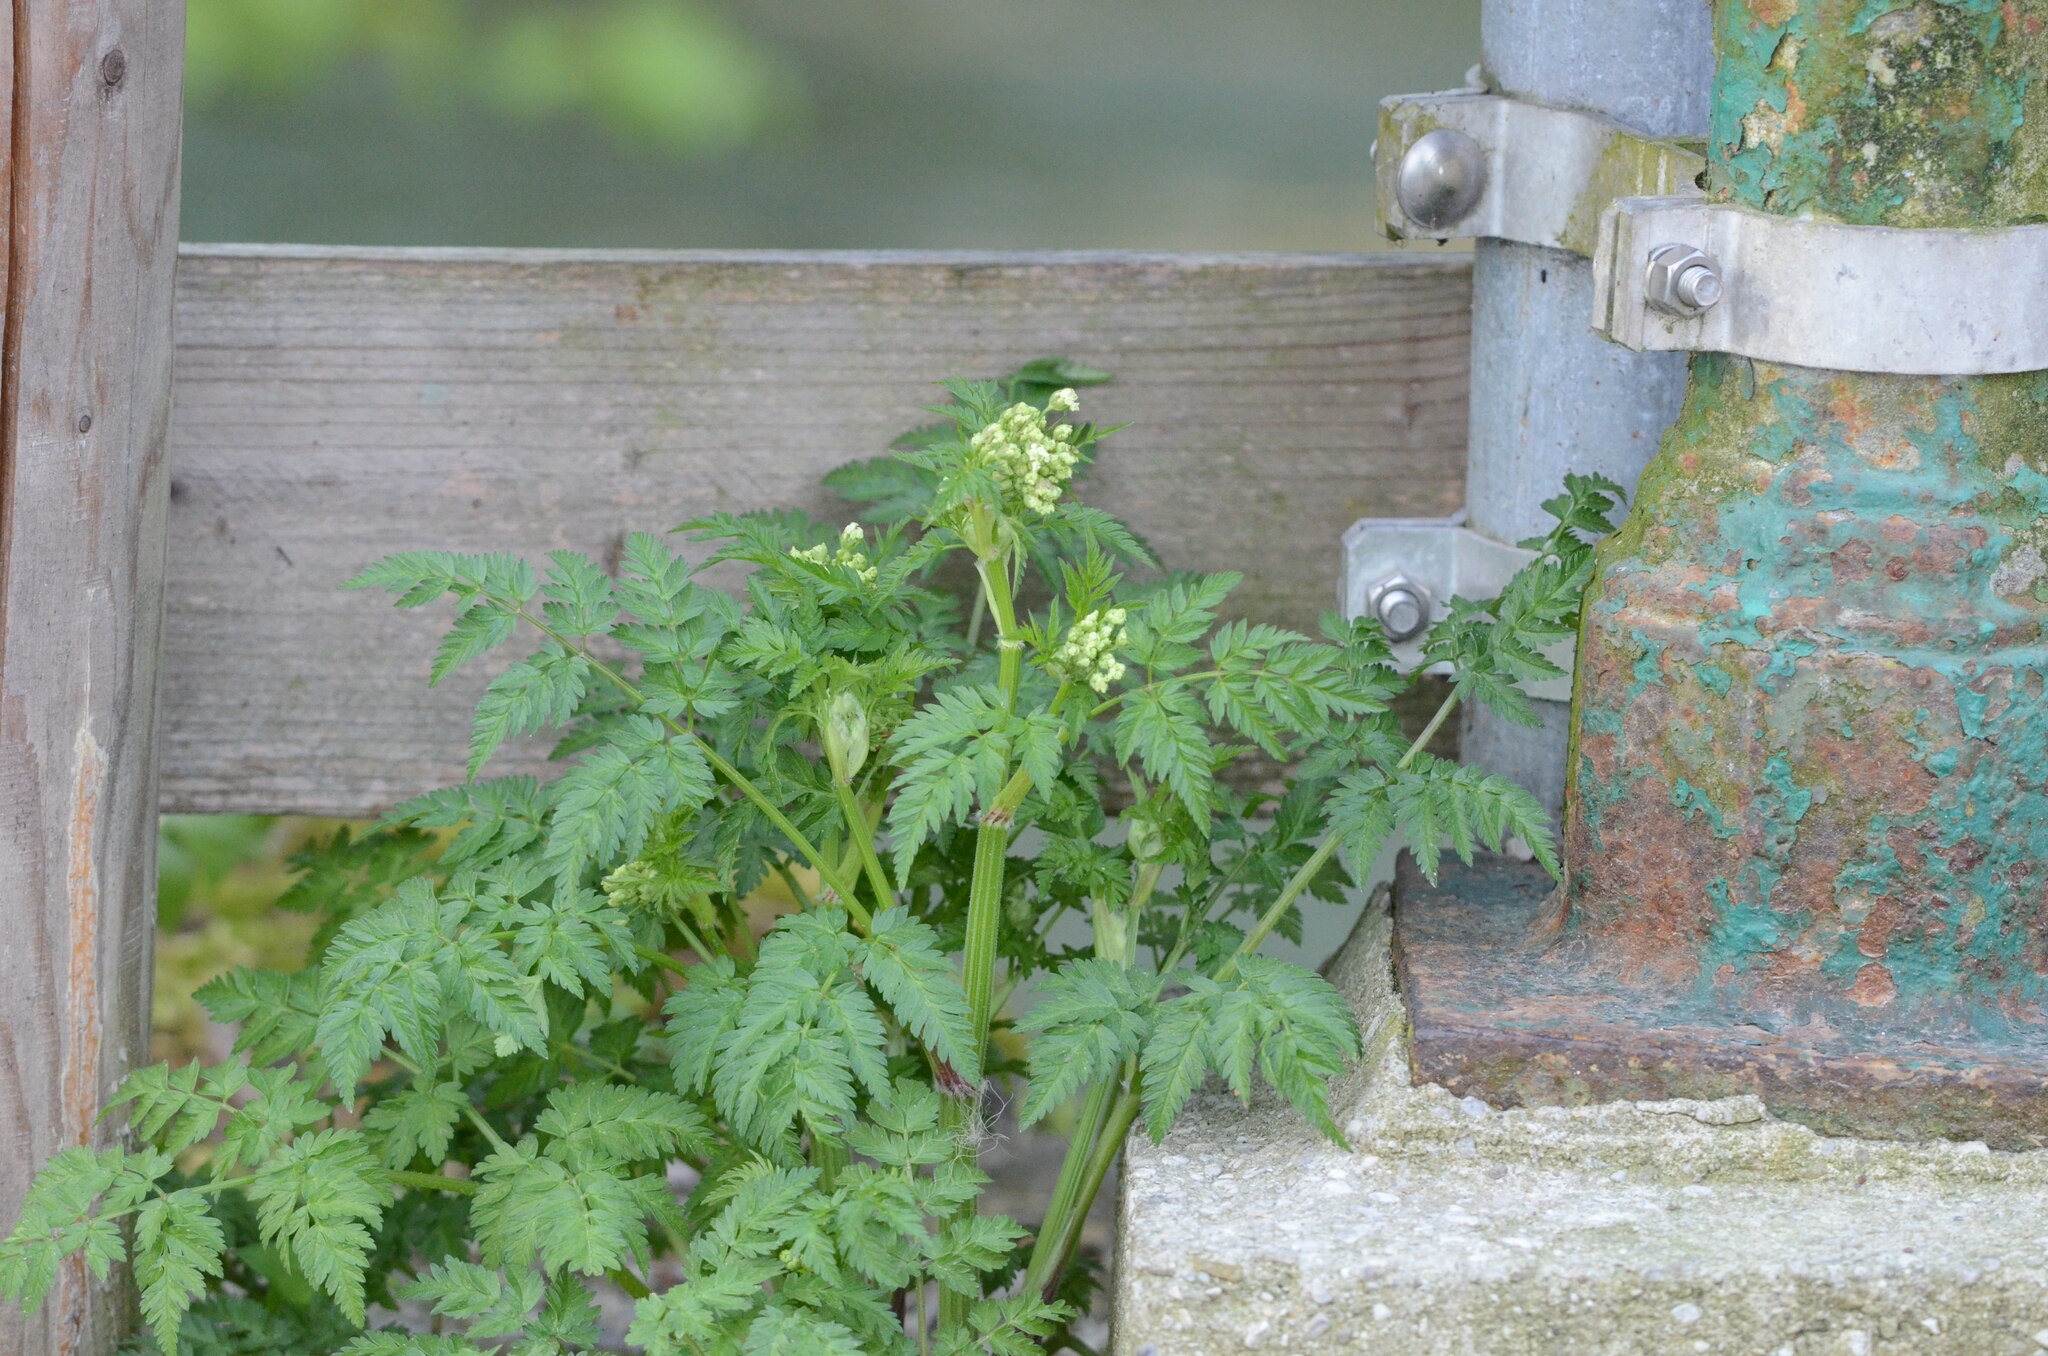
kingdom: Plantae
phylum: Tracheophyta
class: Magnoliopsida
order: Apiales
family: Apiaceae
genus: Anthriscus
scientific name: Anthriscus sylvestris
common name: Cow parsley
